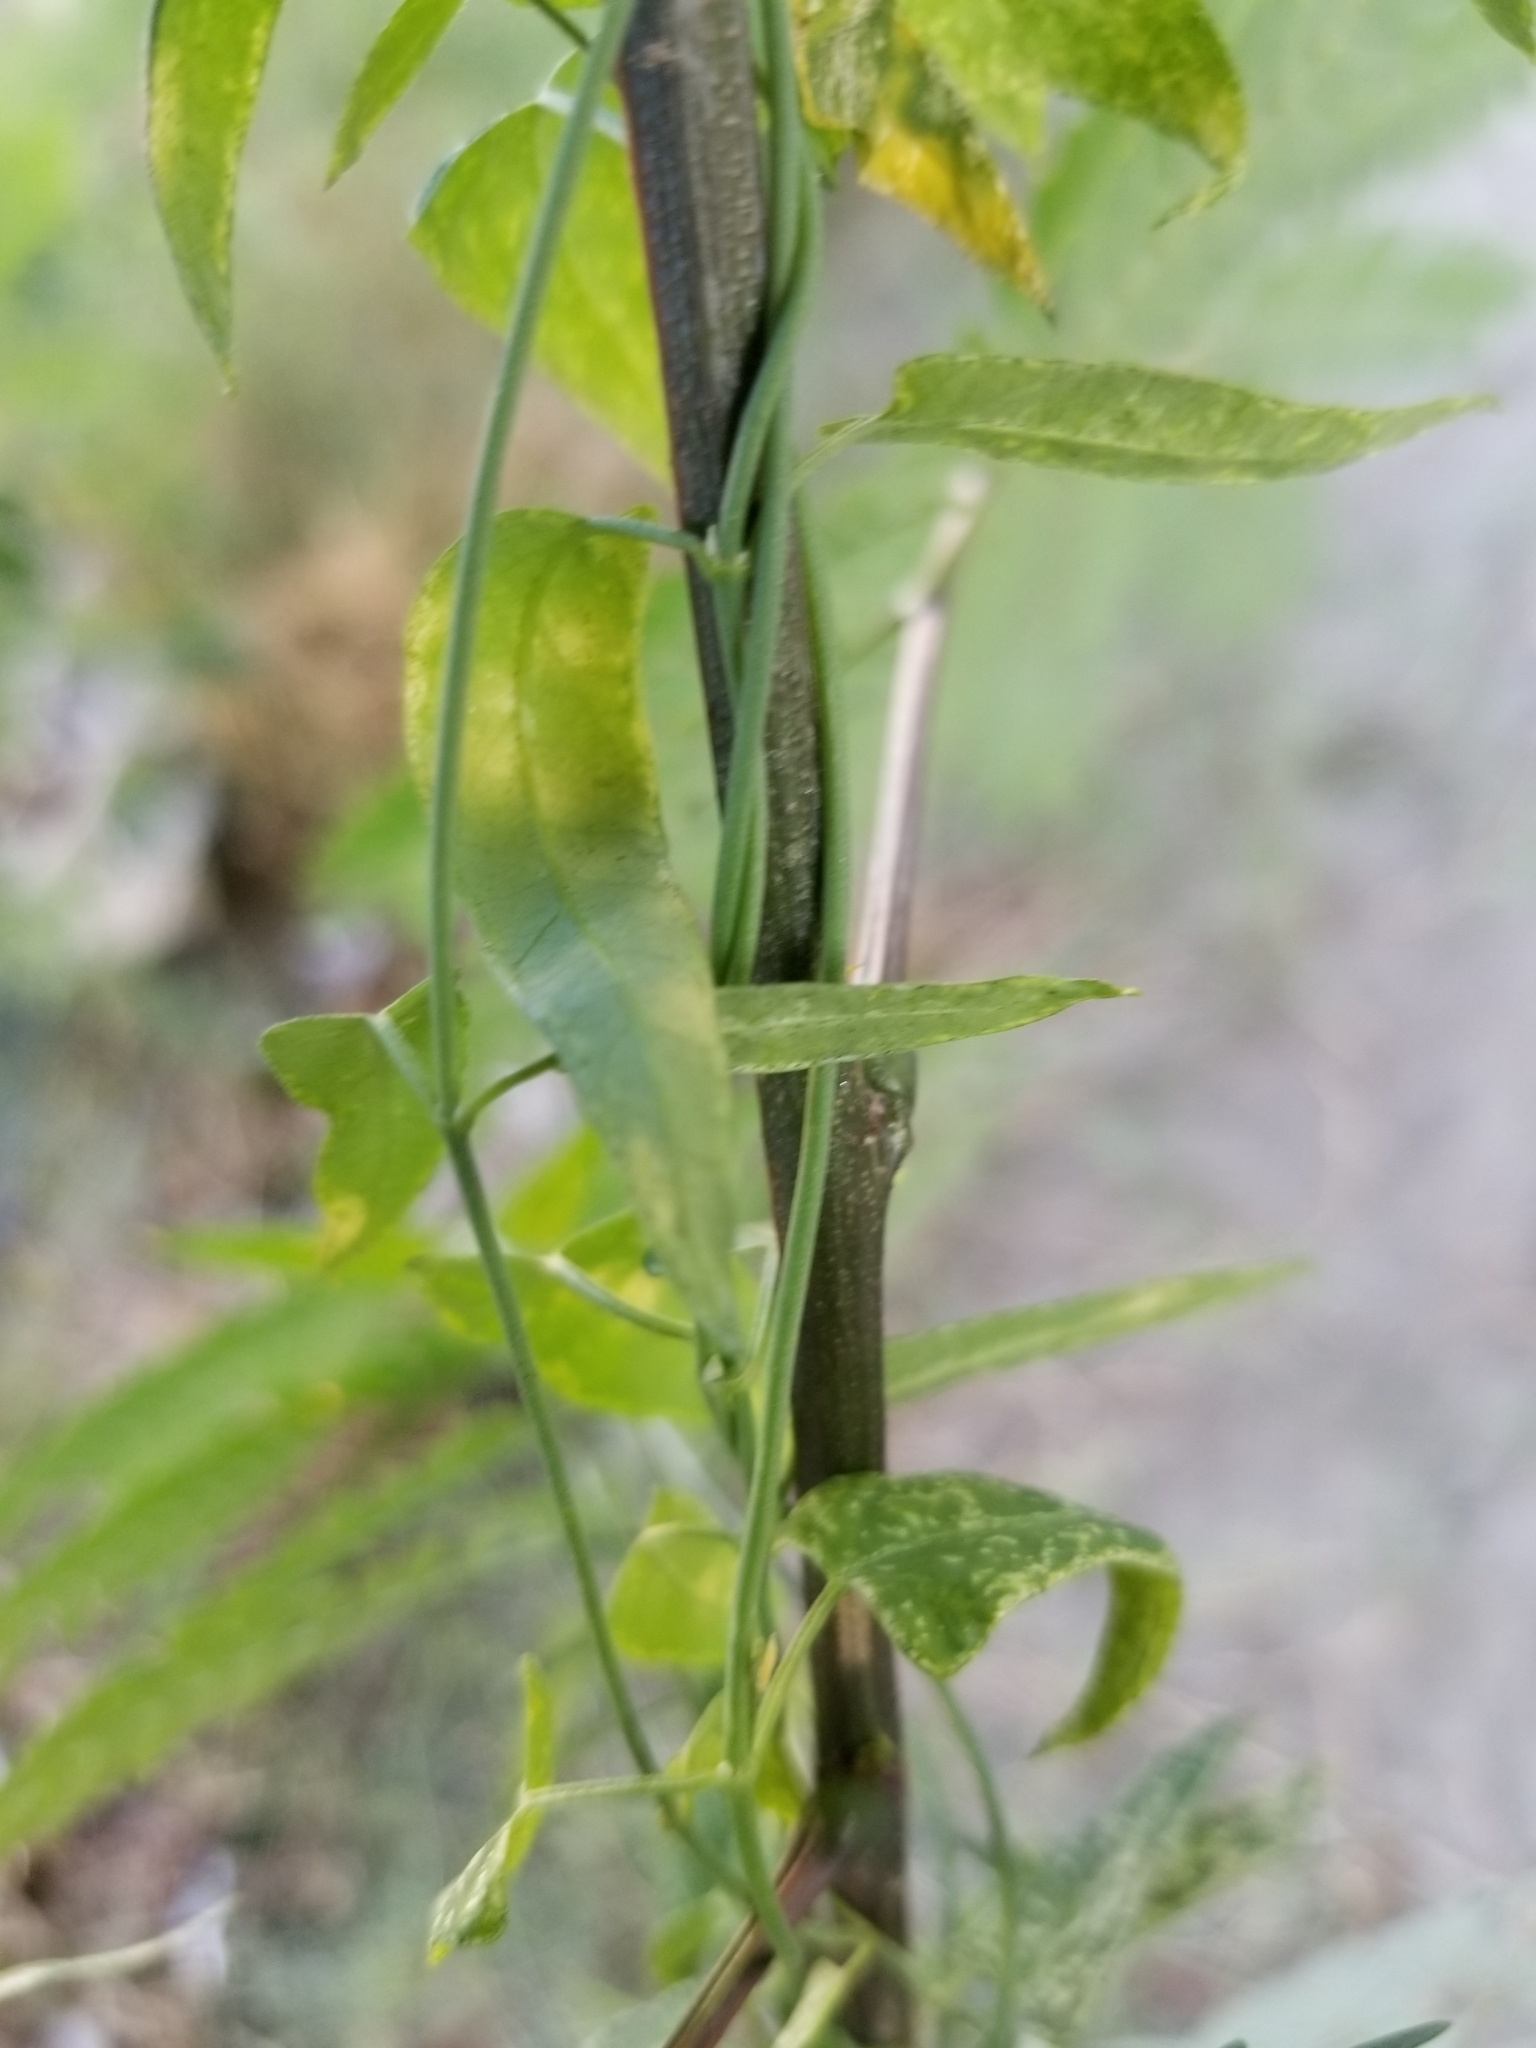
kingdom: Plantae
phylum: Tracheophyta
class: Magnoliopsida
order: Gentianales
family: Apocynaceae
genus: Funastrum
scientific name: Funastrum heterophyllum
